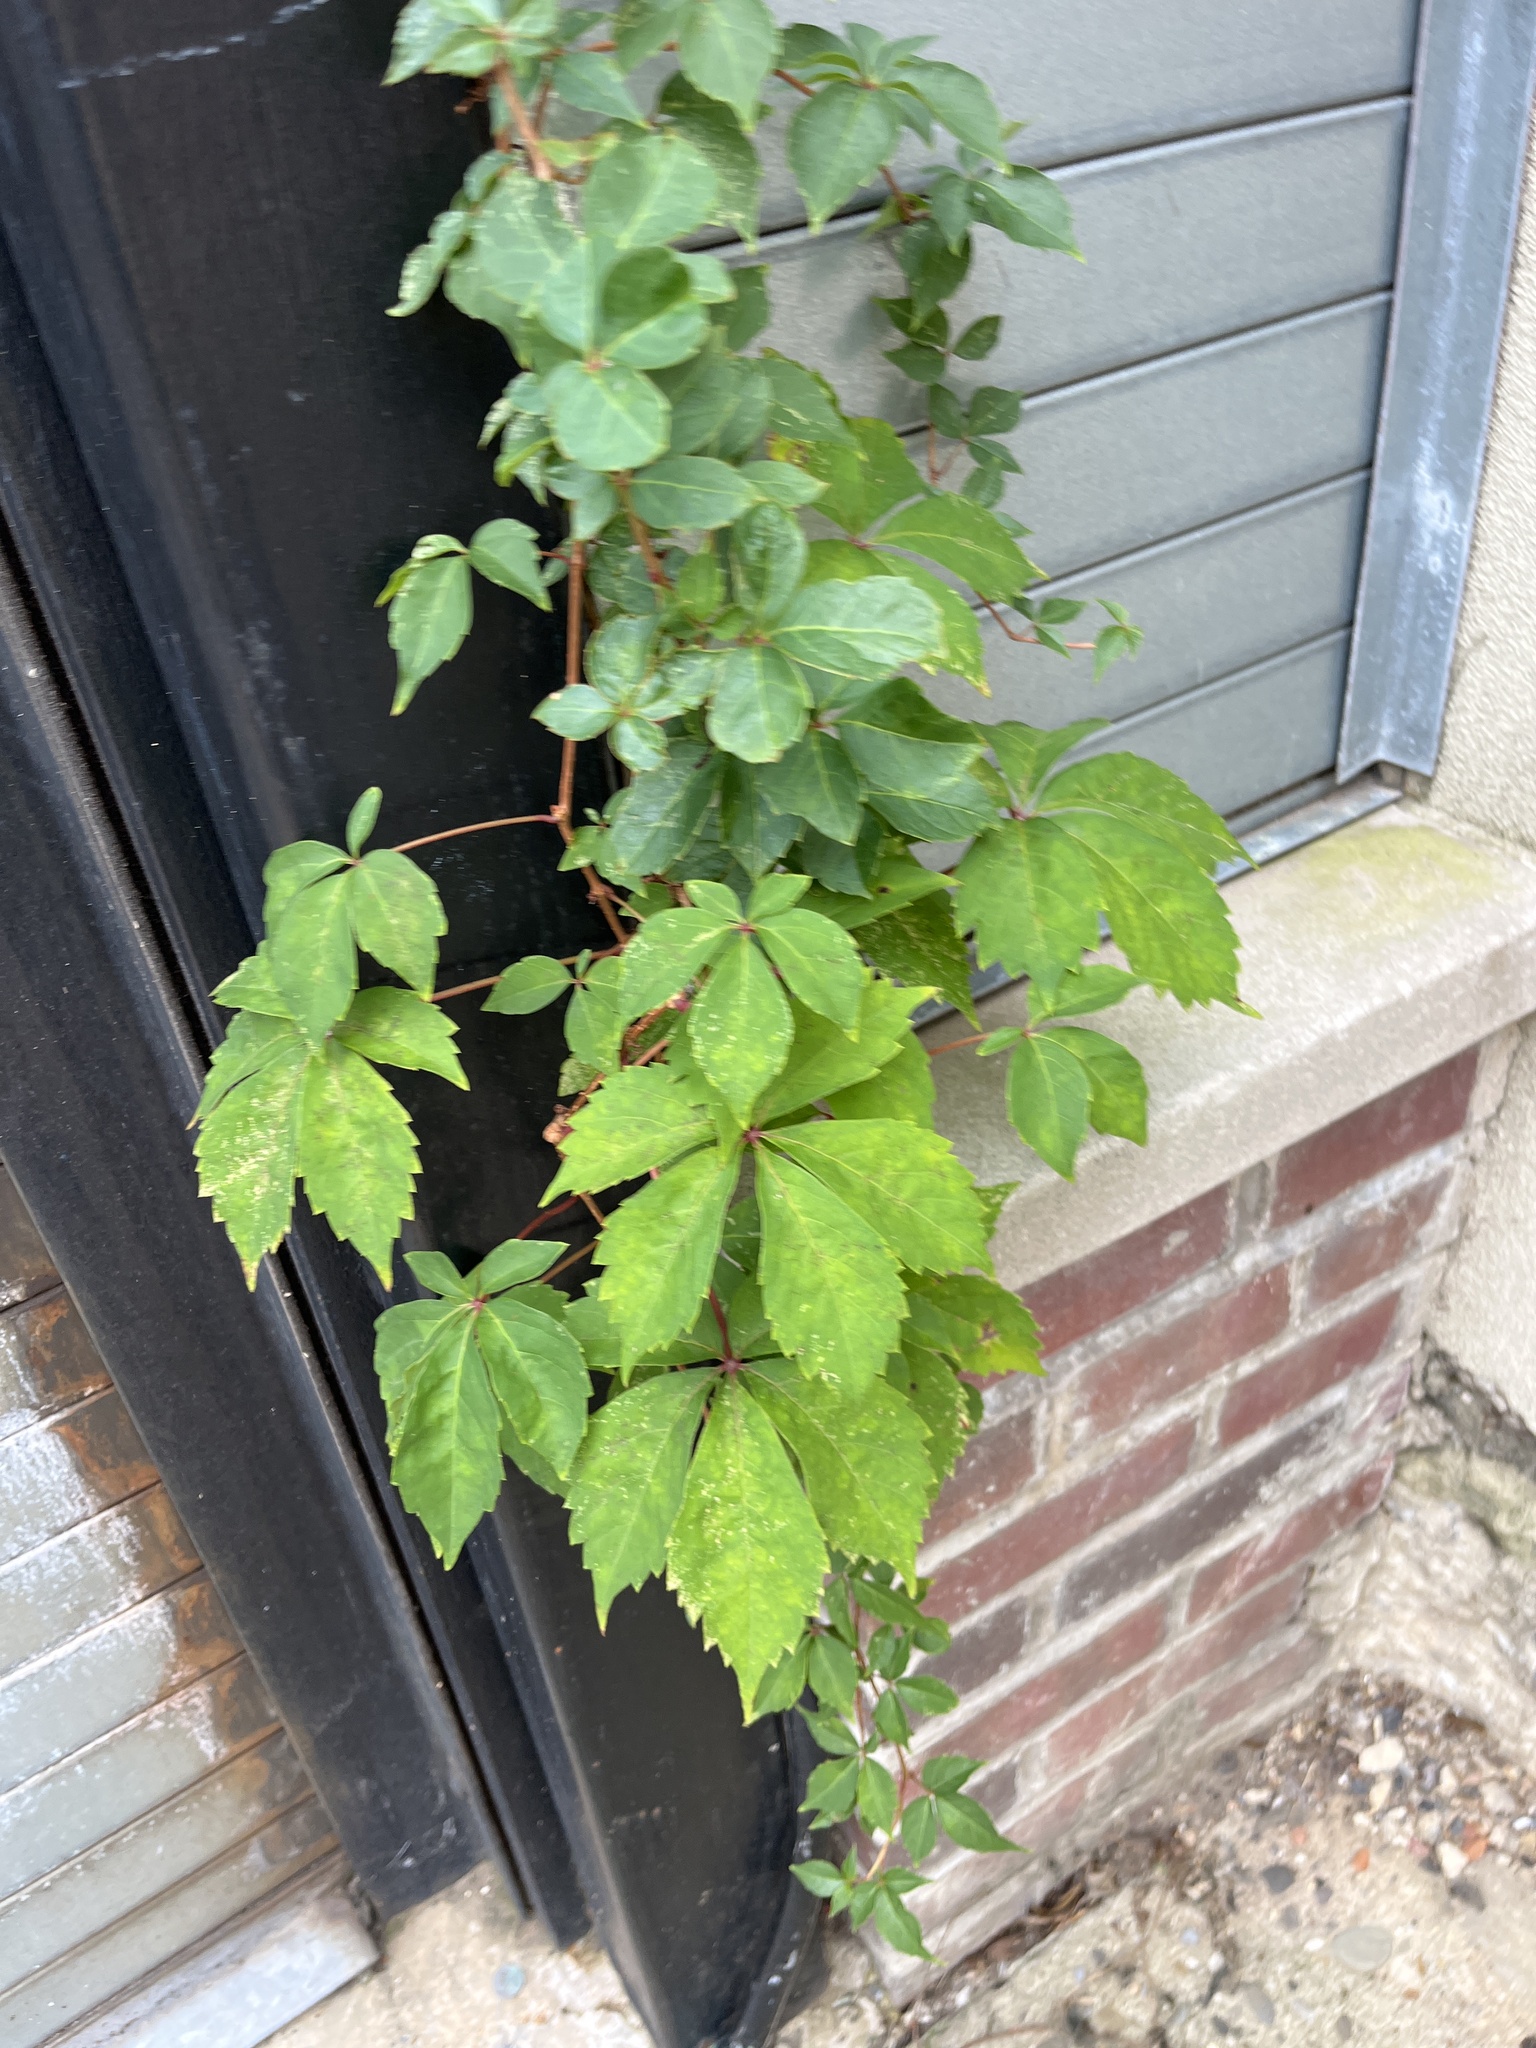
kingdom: Plantae
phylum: Tracheophyta
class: Magnoliopsida
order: Vitales
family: Vitaceae
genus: Parthenocissus
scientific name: Parthenocissus quinquefolia
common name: Virginia-creeper
